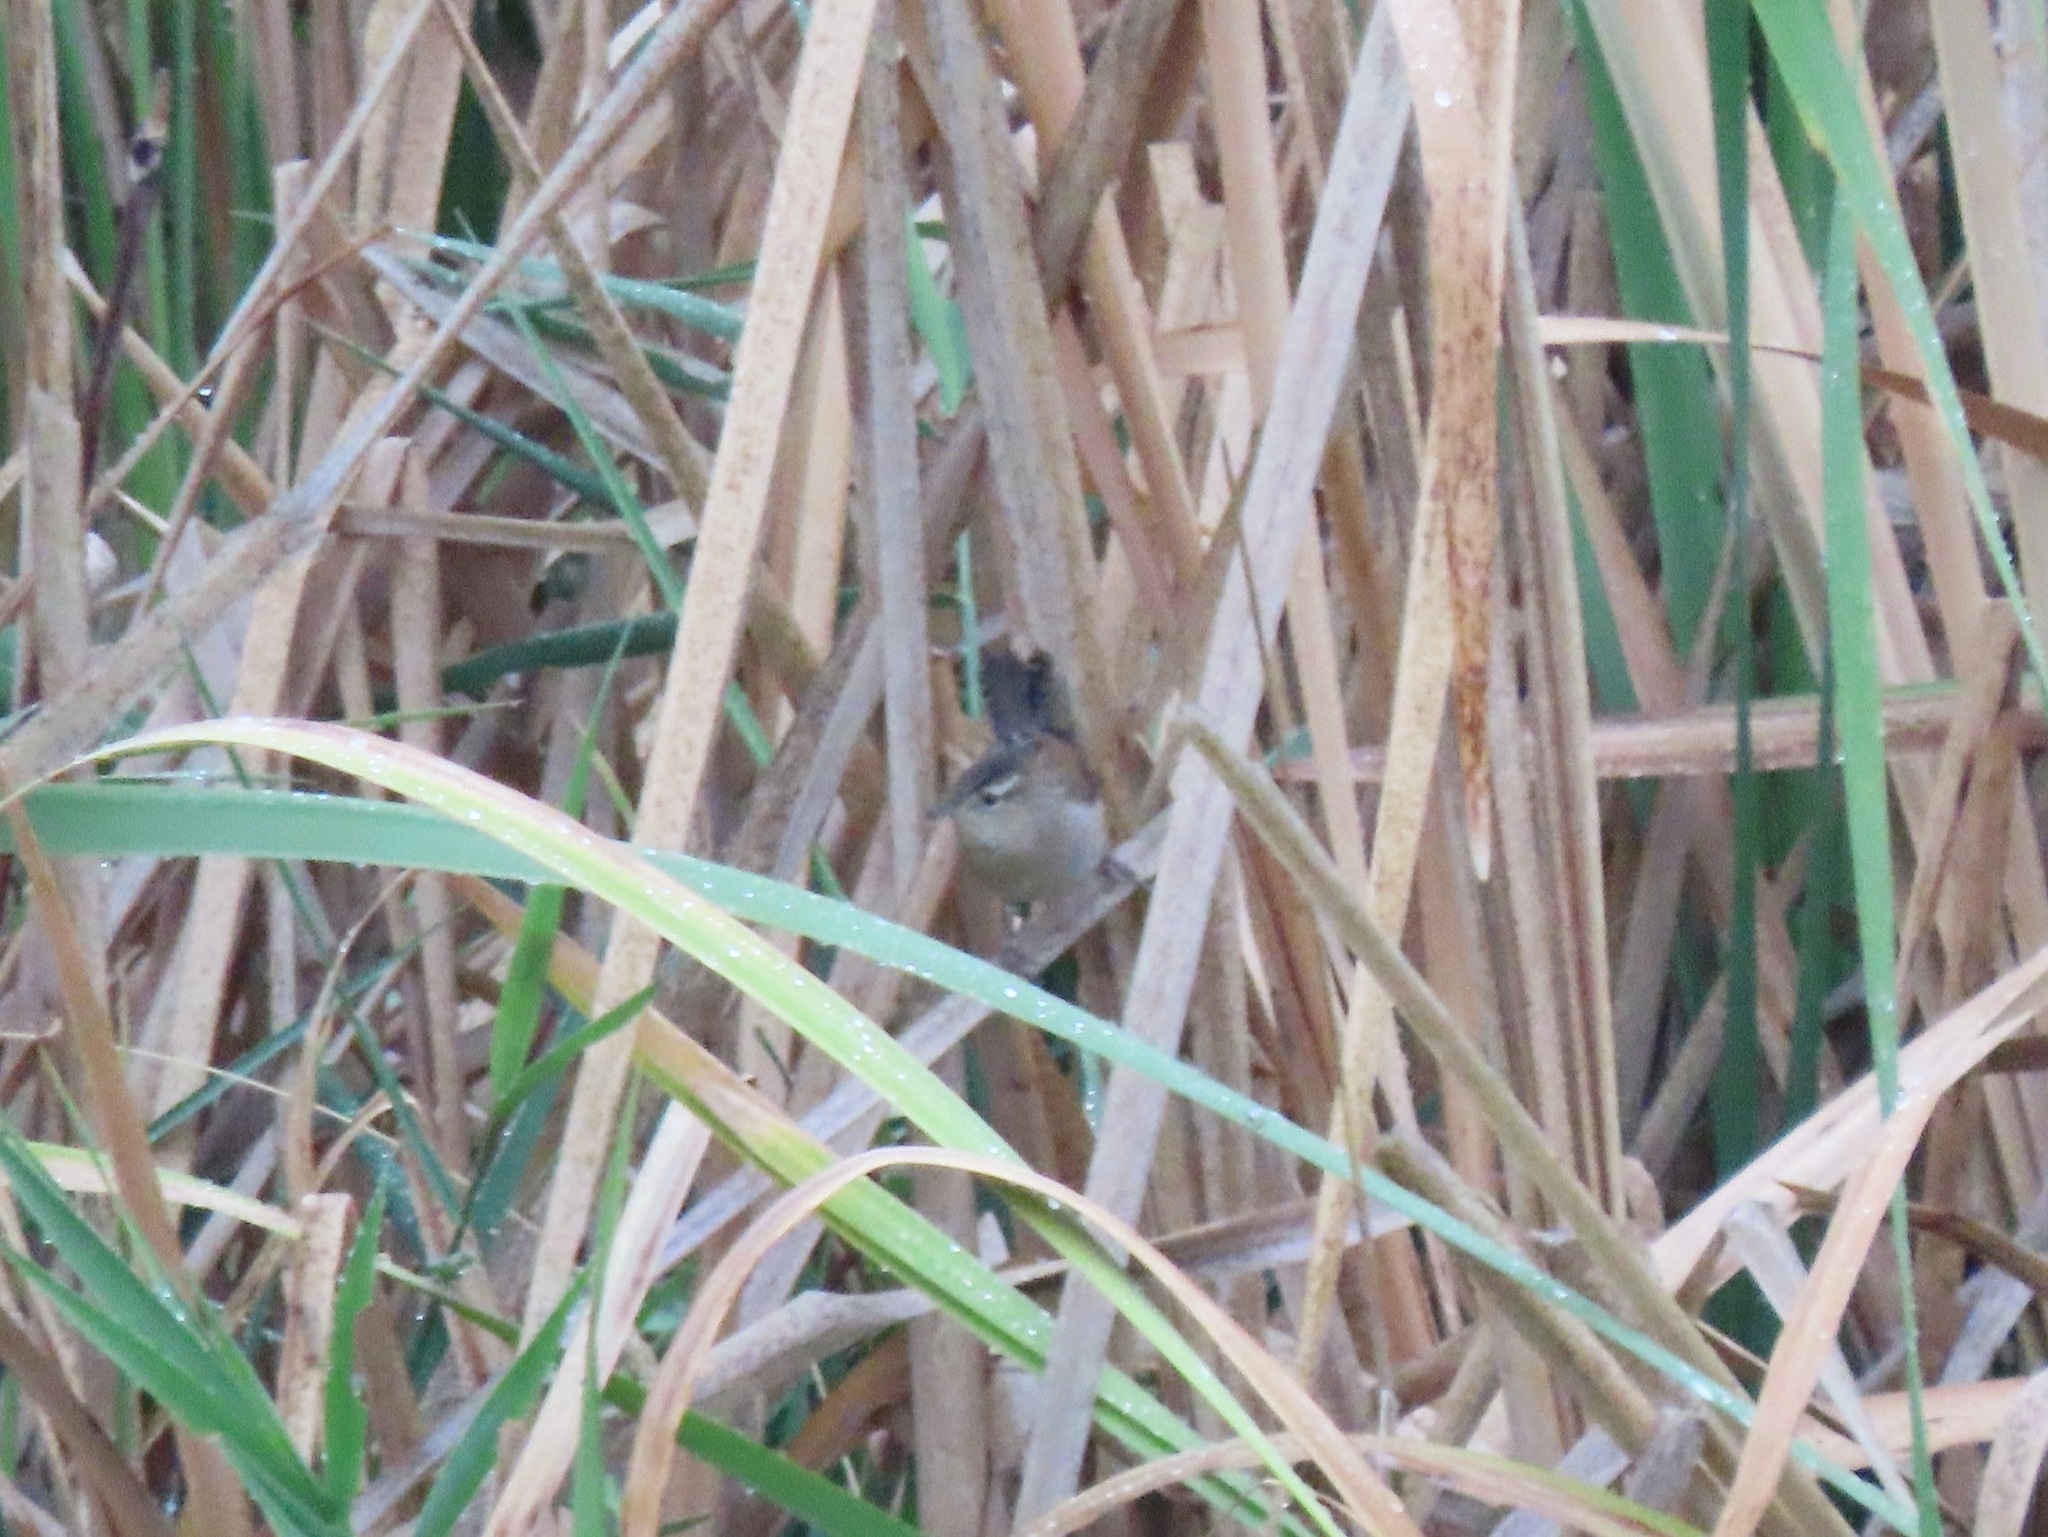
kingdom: Animalia
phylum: Chordata
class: Aves
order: Passeriformes
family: Troglodytidae
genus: Cistothorus
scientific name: Cistothorus palustris
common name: Marsh wren
